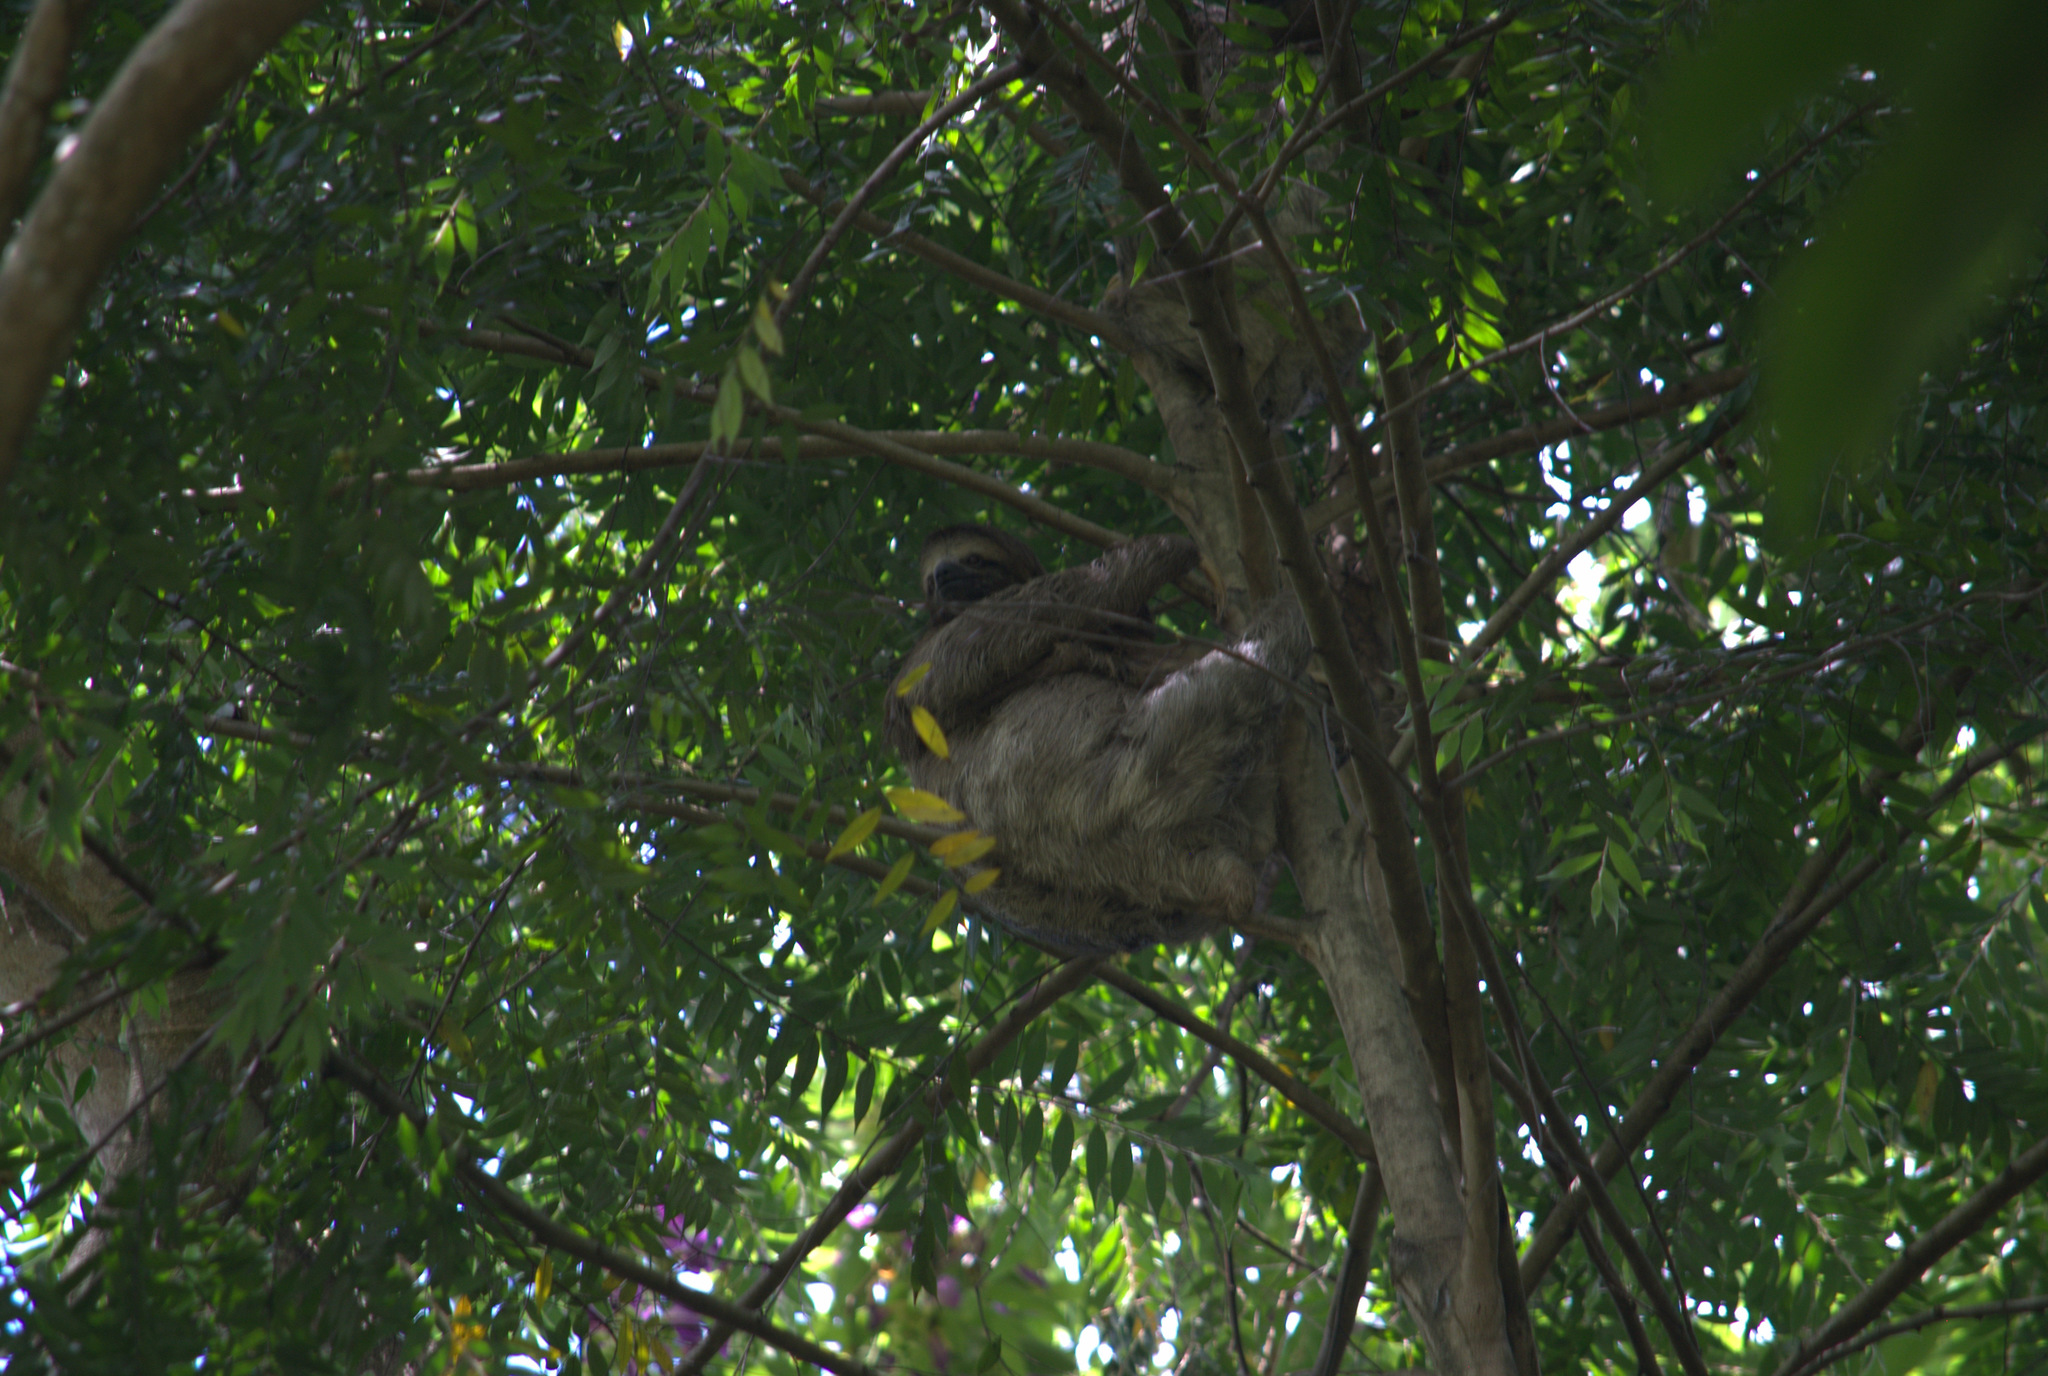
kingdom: Animalia
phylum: Chordata
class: Mammalia
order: Pilosa
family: Bradypodidae
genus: Bradypus
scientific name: Bradypus variegatus
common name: Brown-throated three-toed sloth
